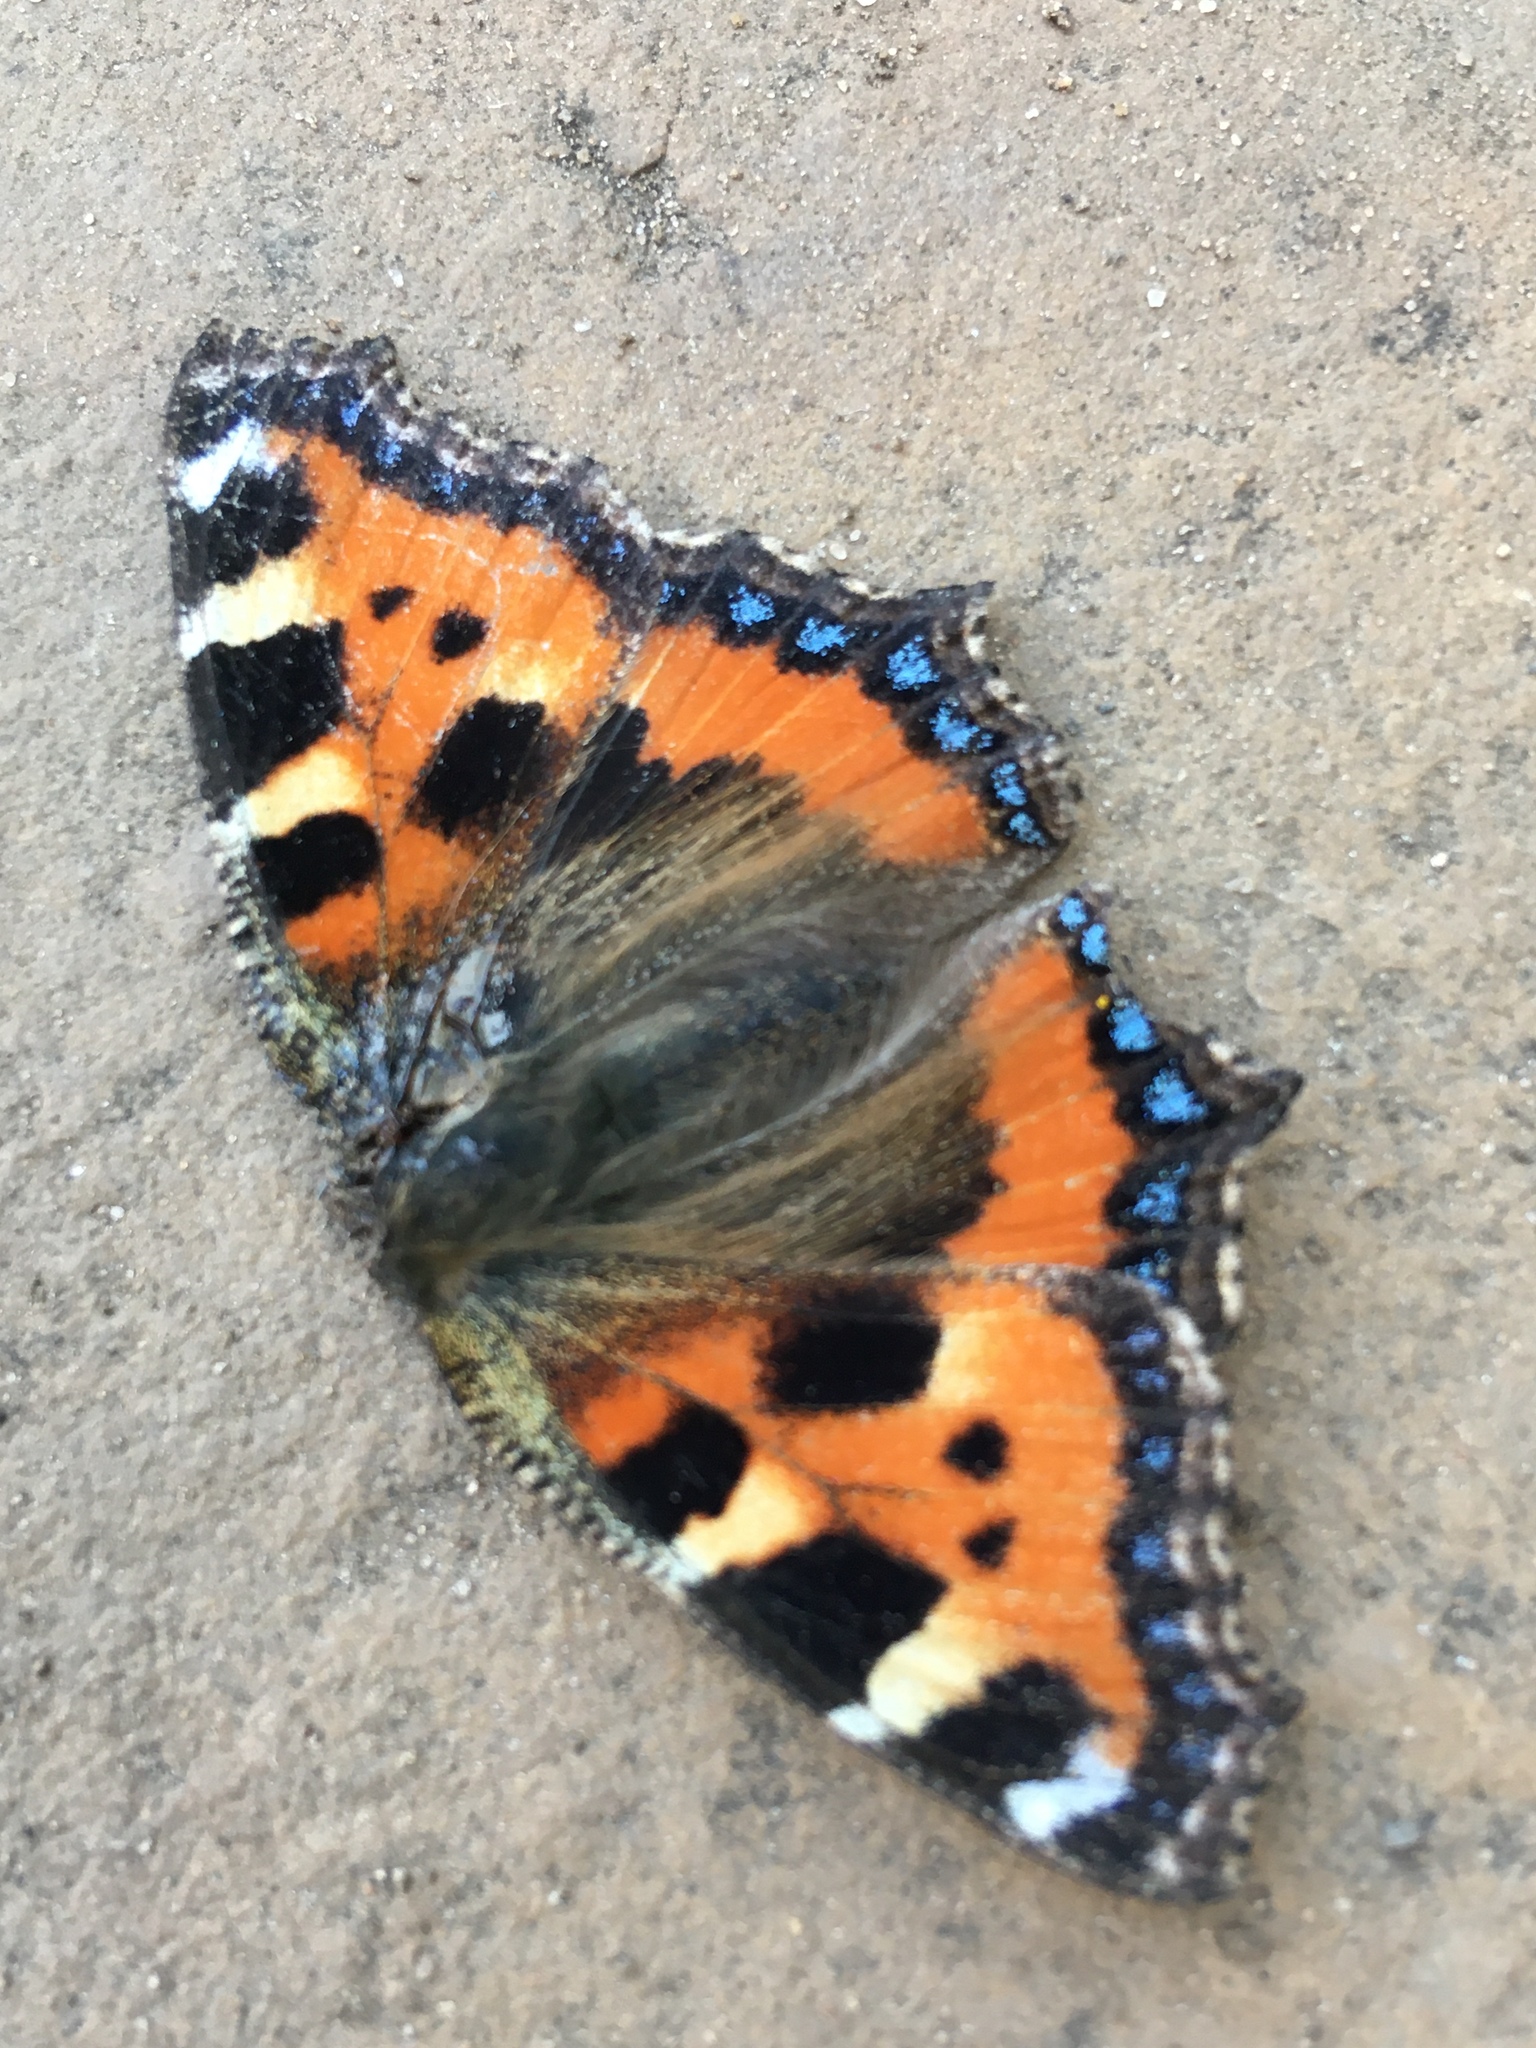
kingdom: Animalia
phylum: Arthropoda
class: Insecta
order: Lepidoptera
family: Nymphalidae
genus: Aglais
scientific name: Aglais urticae
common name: Small tortoiseshell
